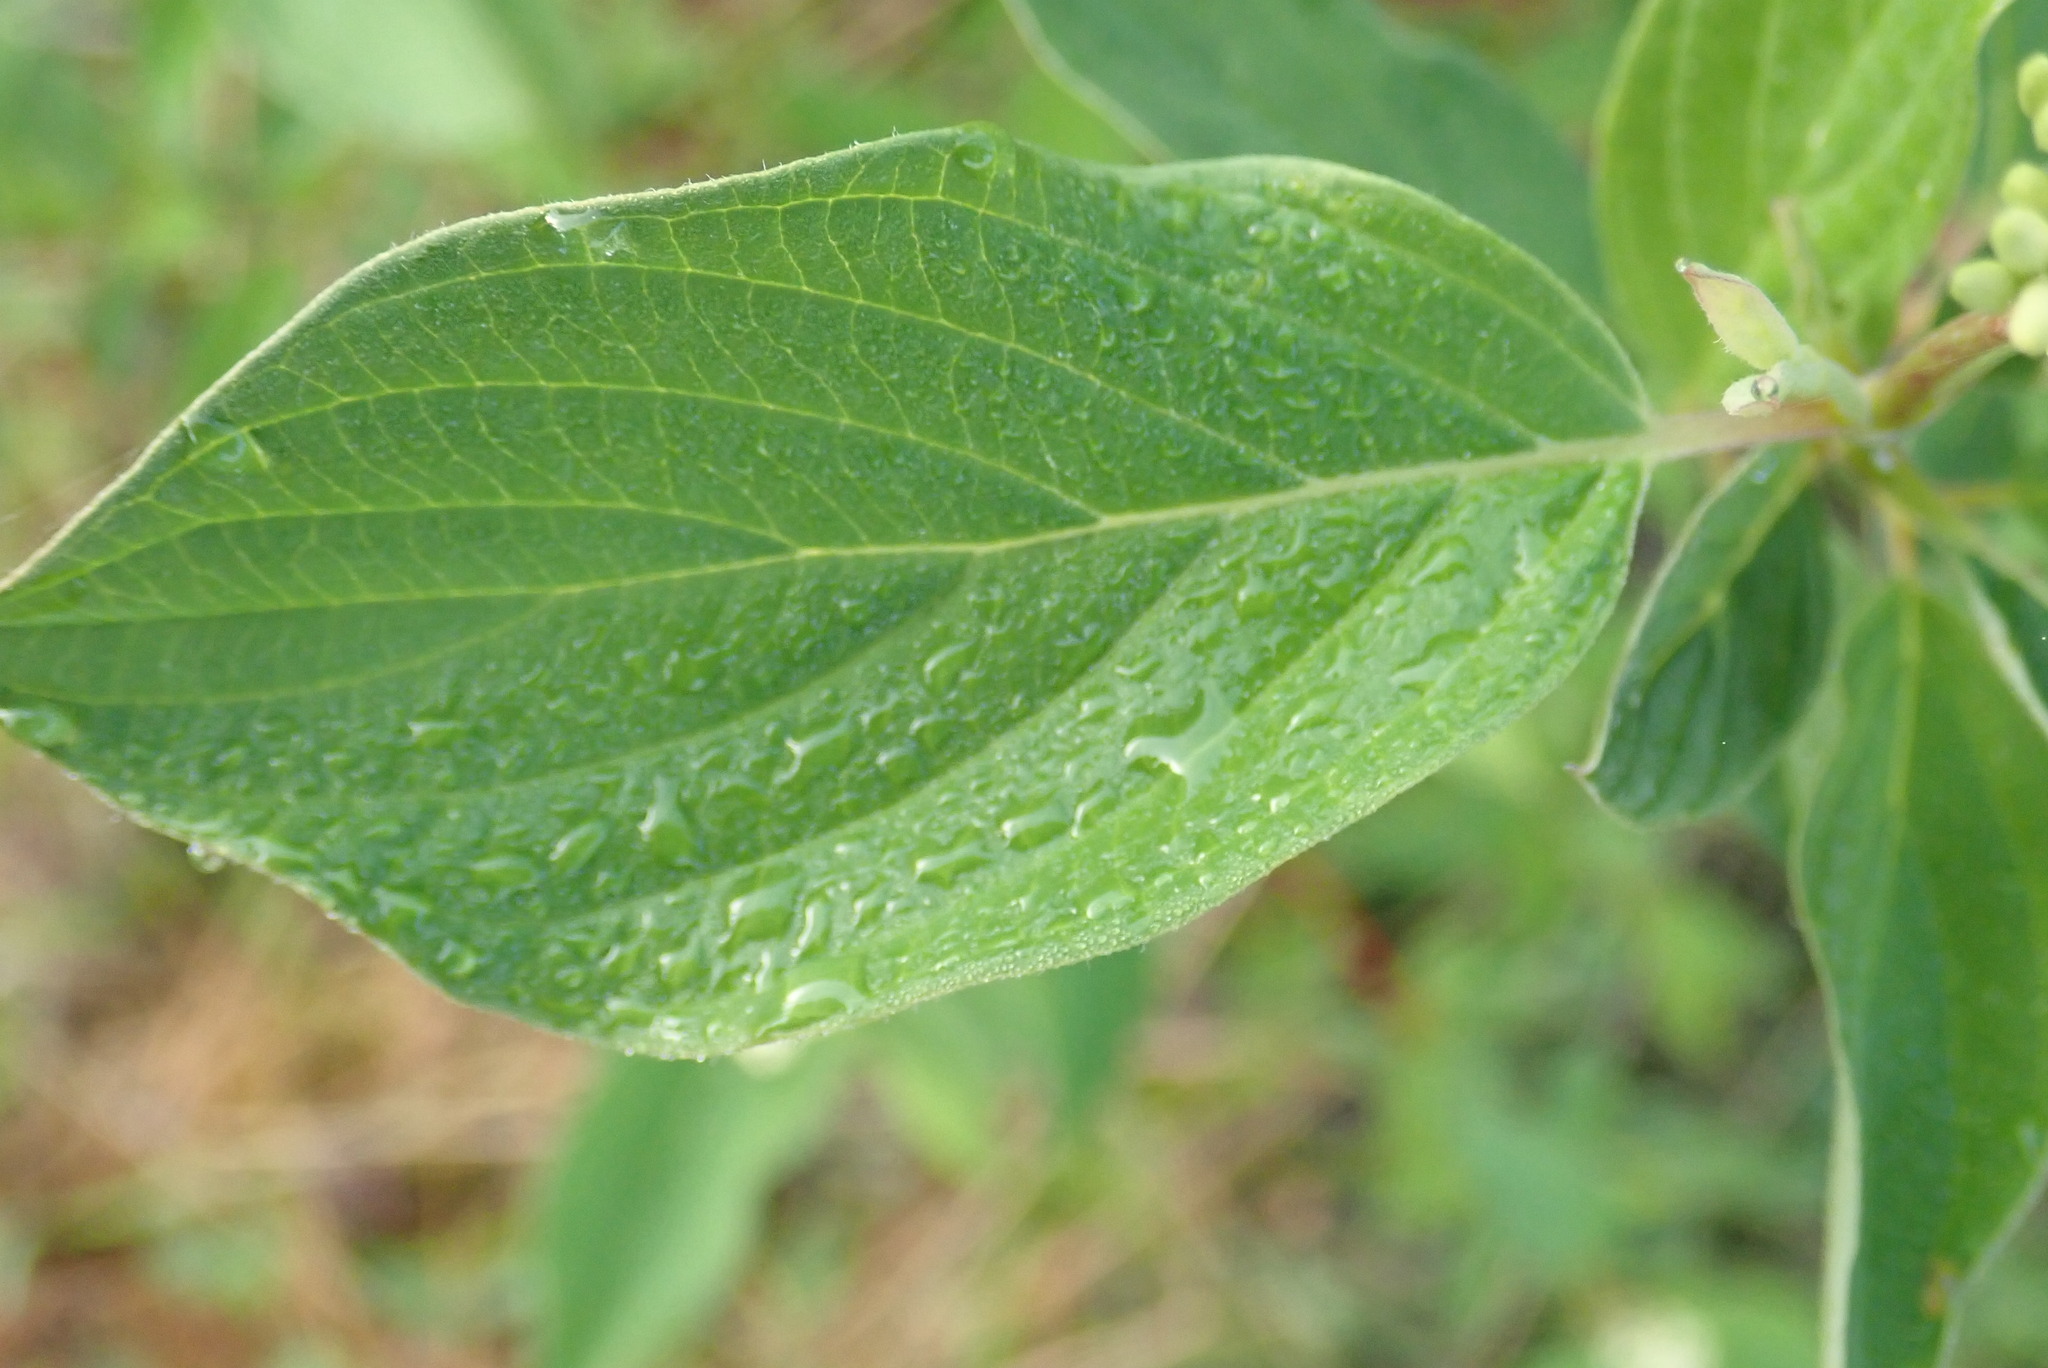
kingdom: Plantae
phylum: Tracheophyta
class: Magnoliopsida
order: Cornales
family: Cornaceae
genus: Cornus
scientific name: Cornus sericea
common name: Red-osier dogwood
